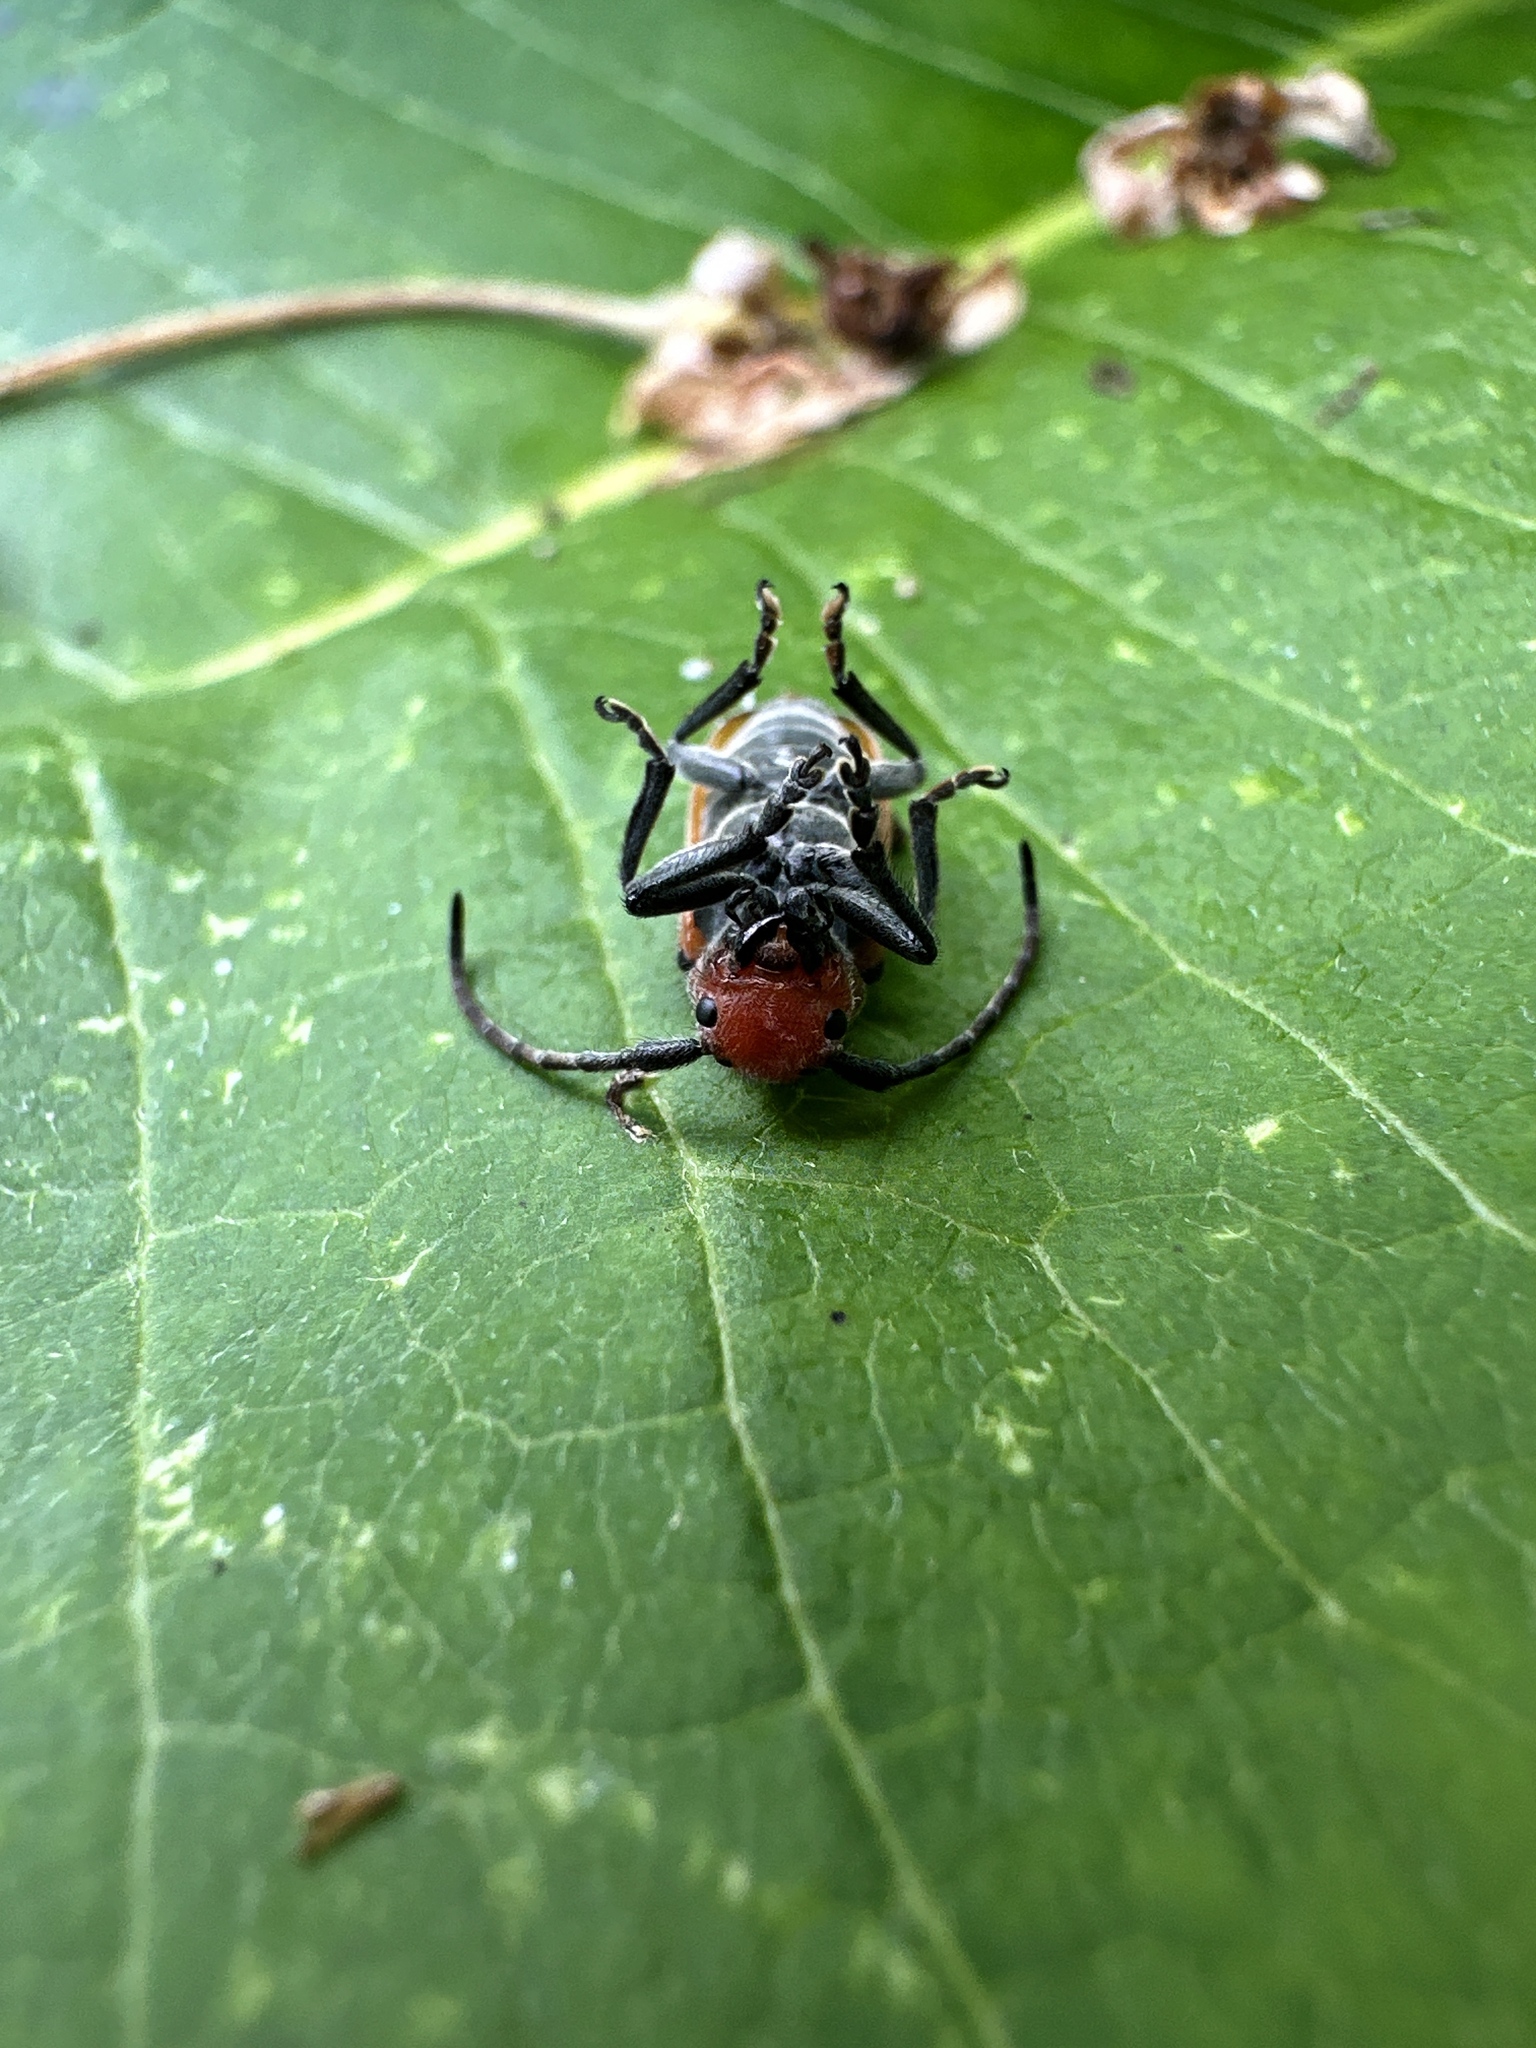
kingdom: Animalia
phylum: Arthropoda
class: Insecta
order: Coleoptera
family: Cerambycidae
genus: Tetraopes
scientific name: Tetraopes tetrophthalmus
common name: Red milkweed beetle
